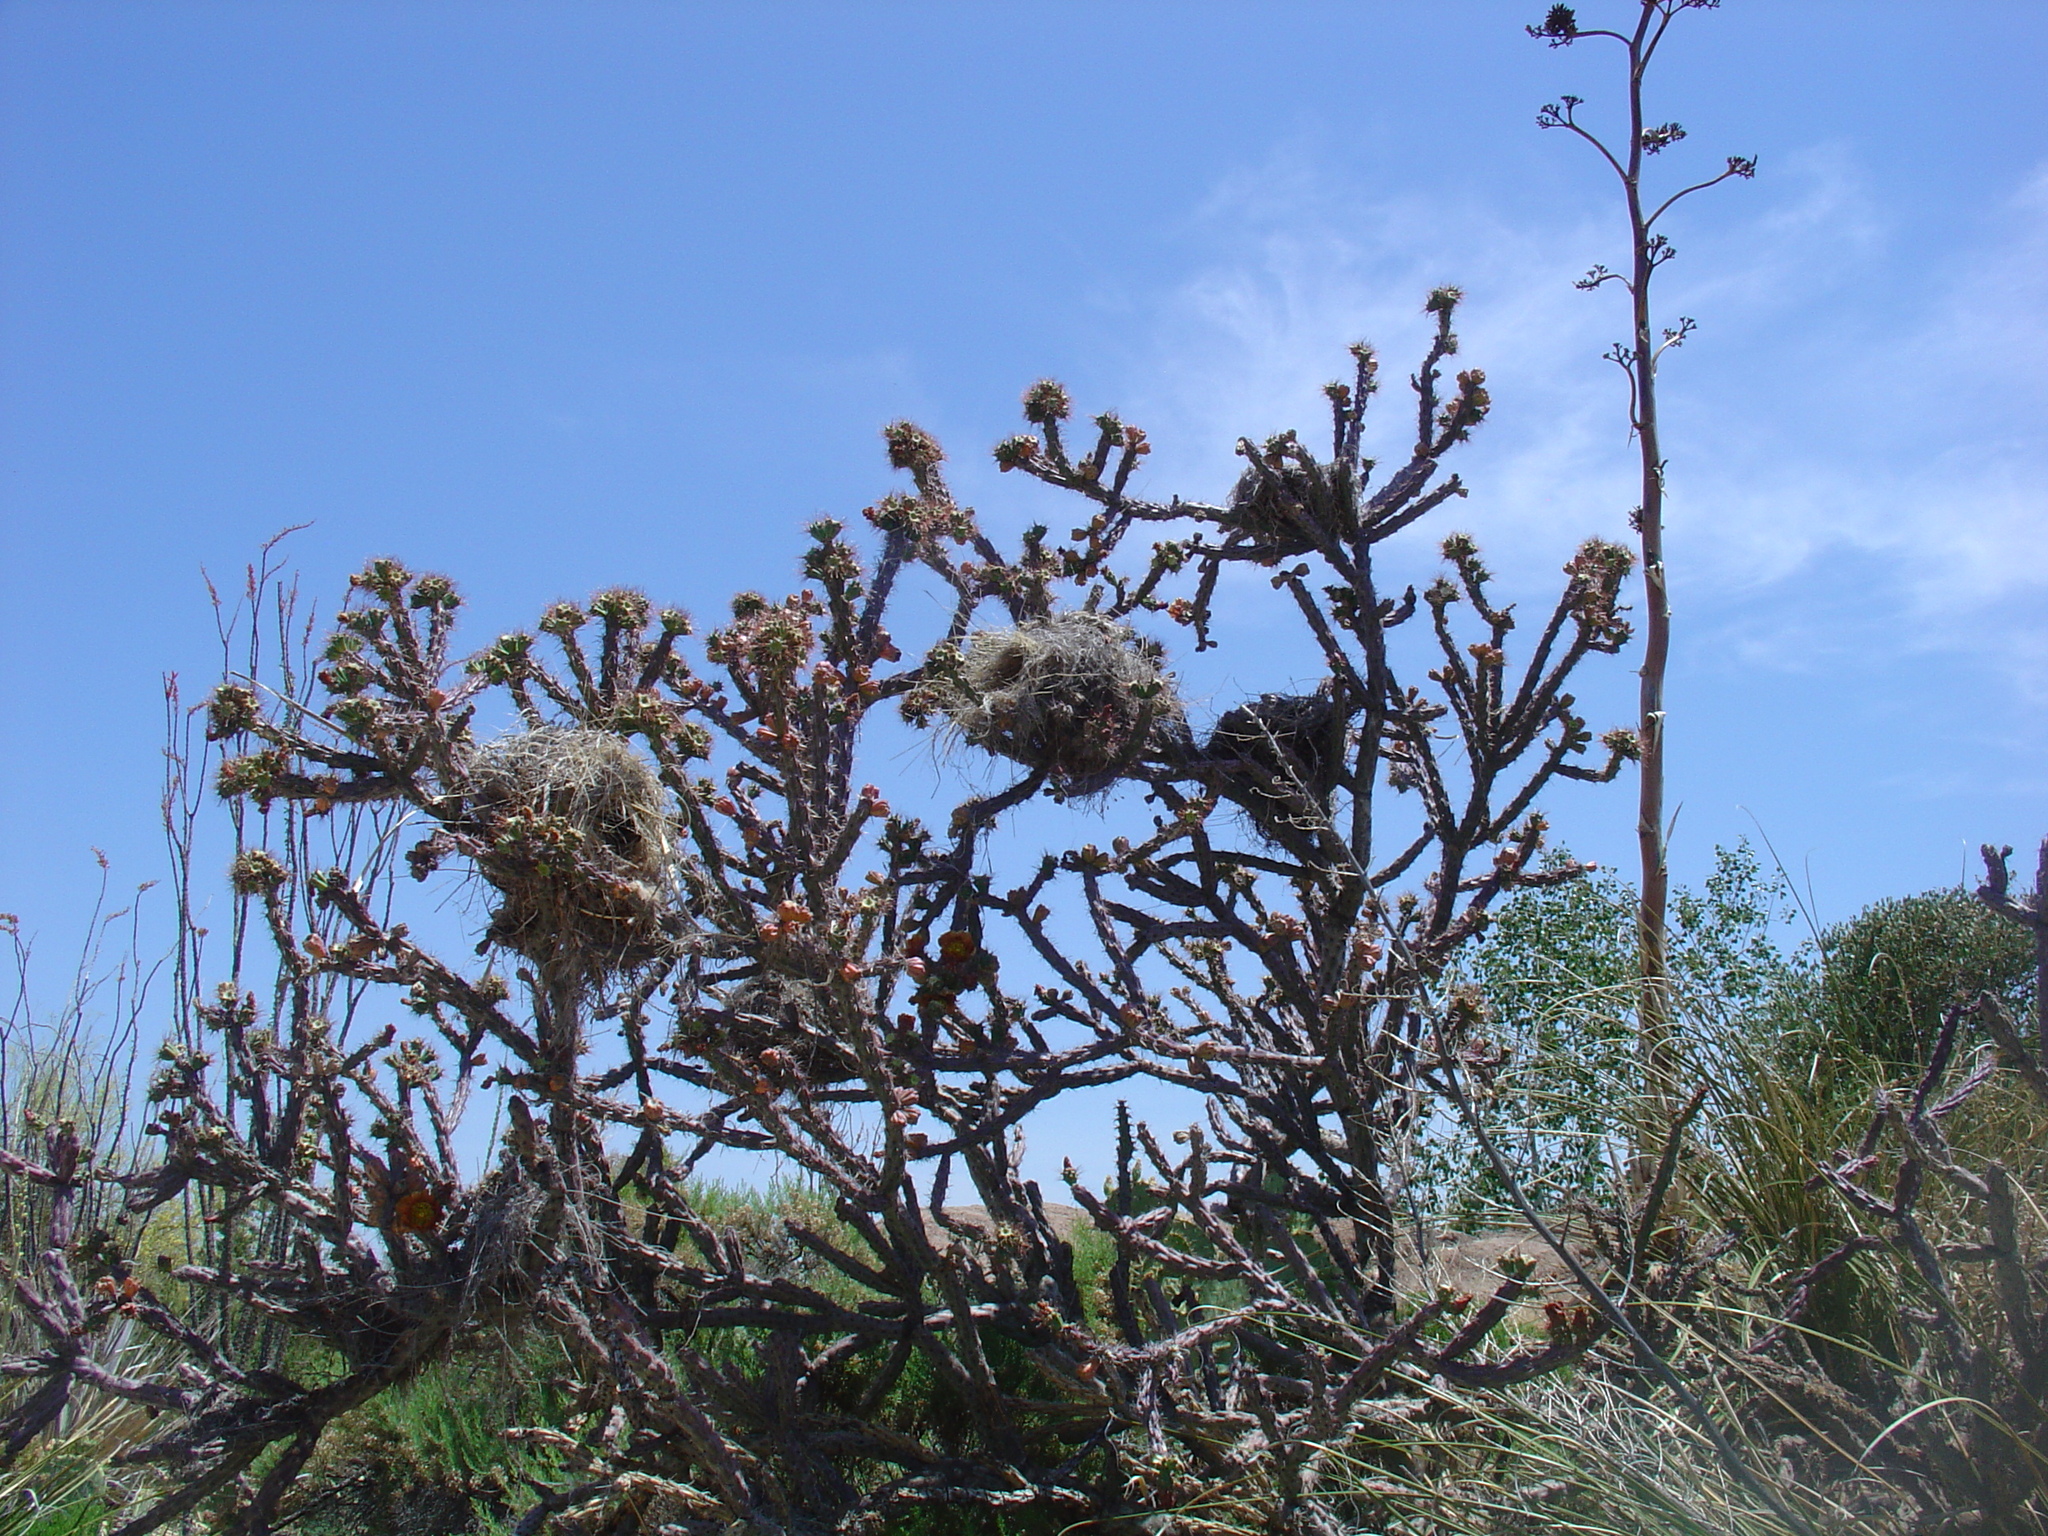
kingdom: Animalia
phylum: Chordata
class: Aves
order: Passeriformes
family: Troglodytidae
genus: Campylorhynchus
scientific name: Campylorhynchus brunneicapillus
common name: Cactus wren
